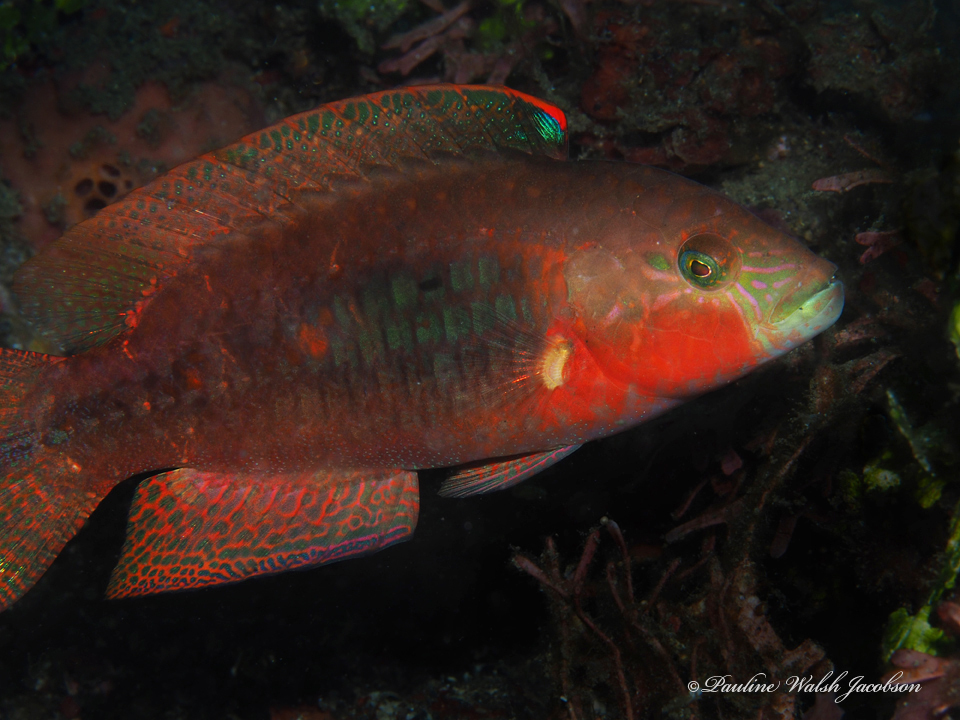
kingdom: Animalia
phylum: Chordata
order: Perciformes
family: Labridae
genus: Oxycheilinus
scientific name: Oxycheilinus bimaculatus
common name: Comettailed wrasse
